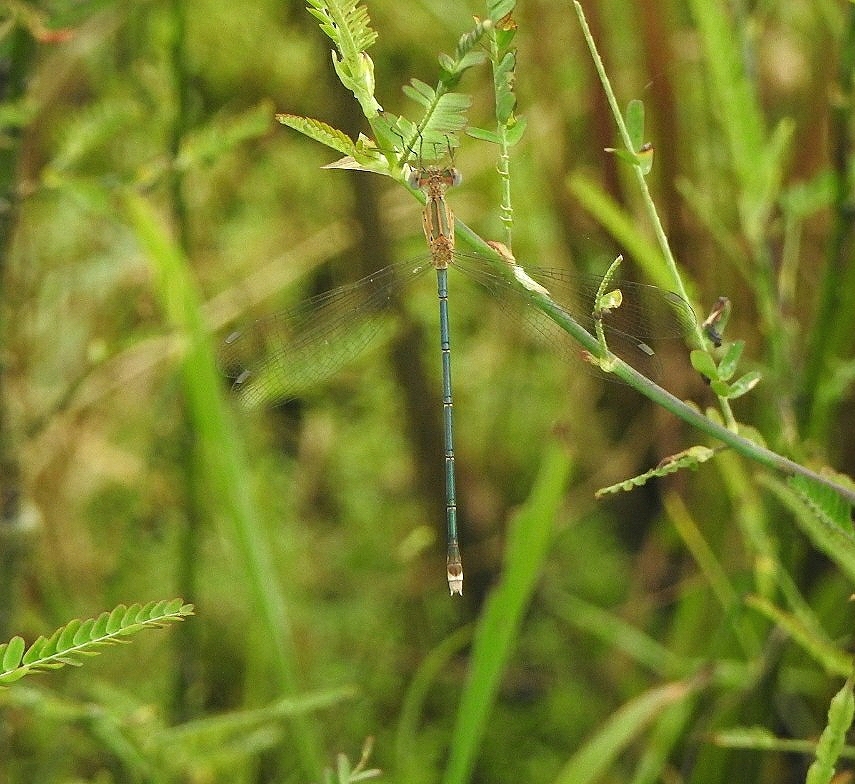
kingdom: Animalia
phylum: Arthropoda
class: Insecta
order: Odonata
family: Lestidae
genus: Lestes
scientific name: Lestes elatus
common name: Emerald spreadwing
